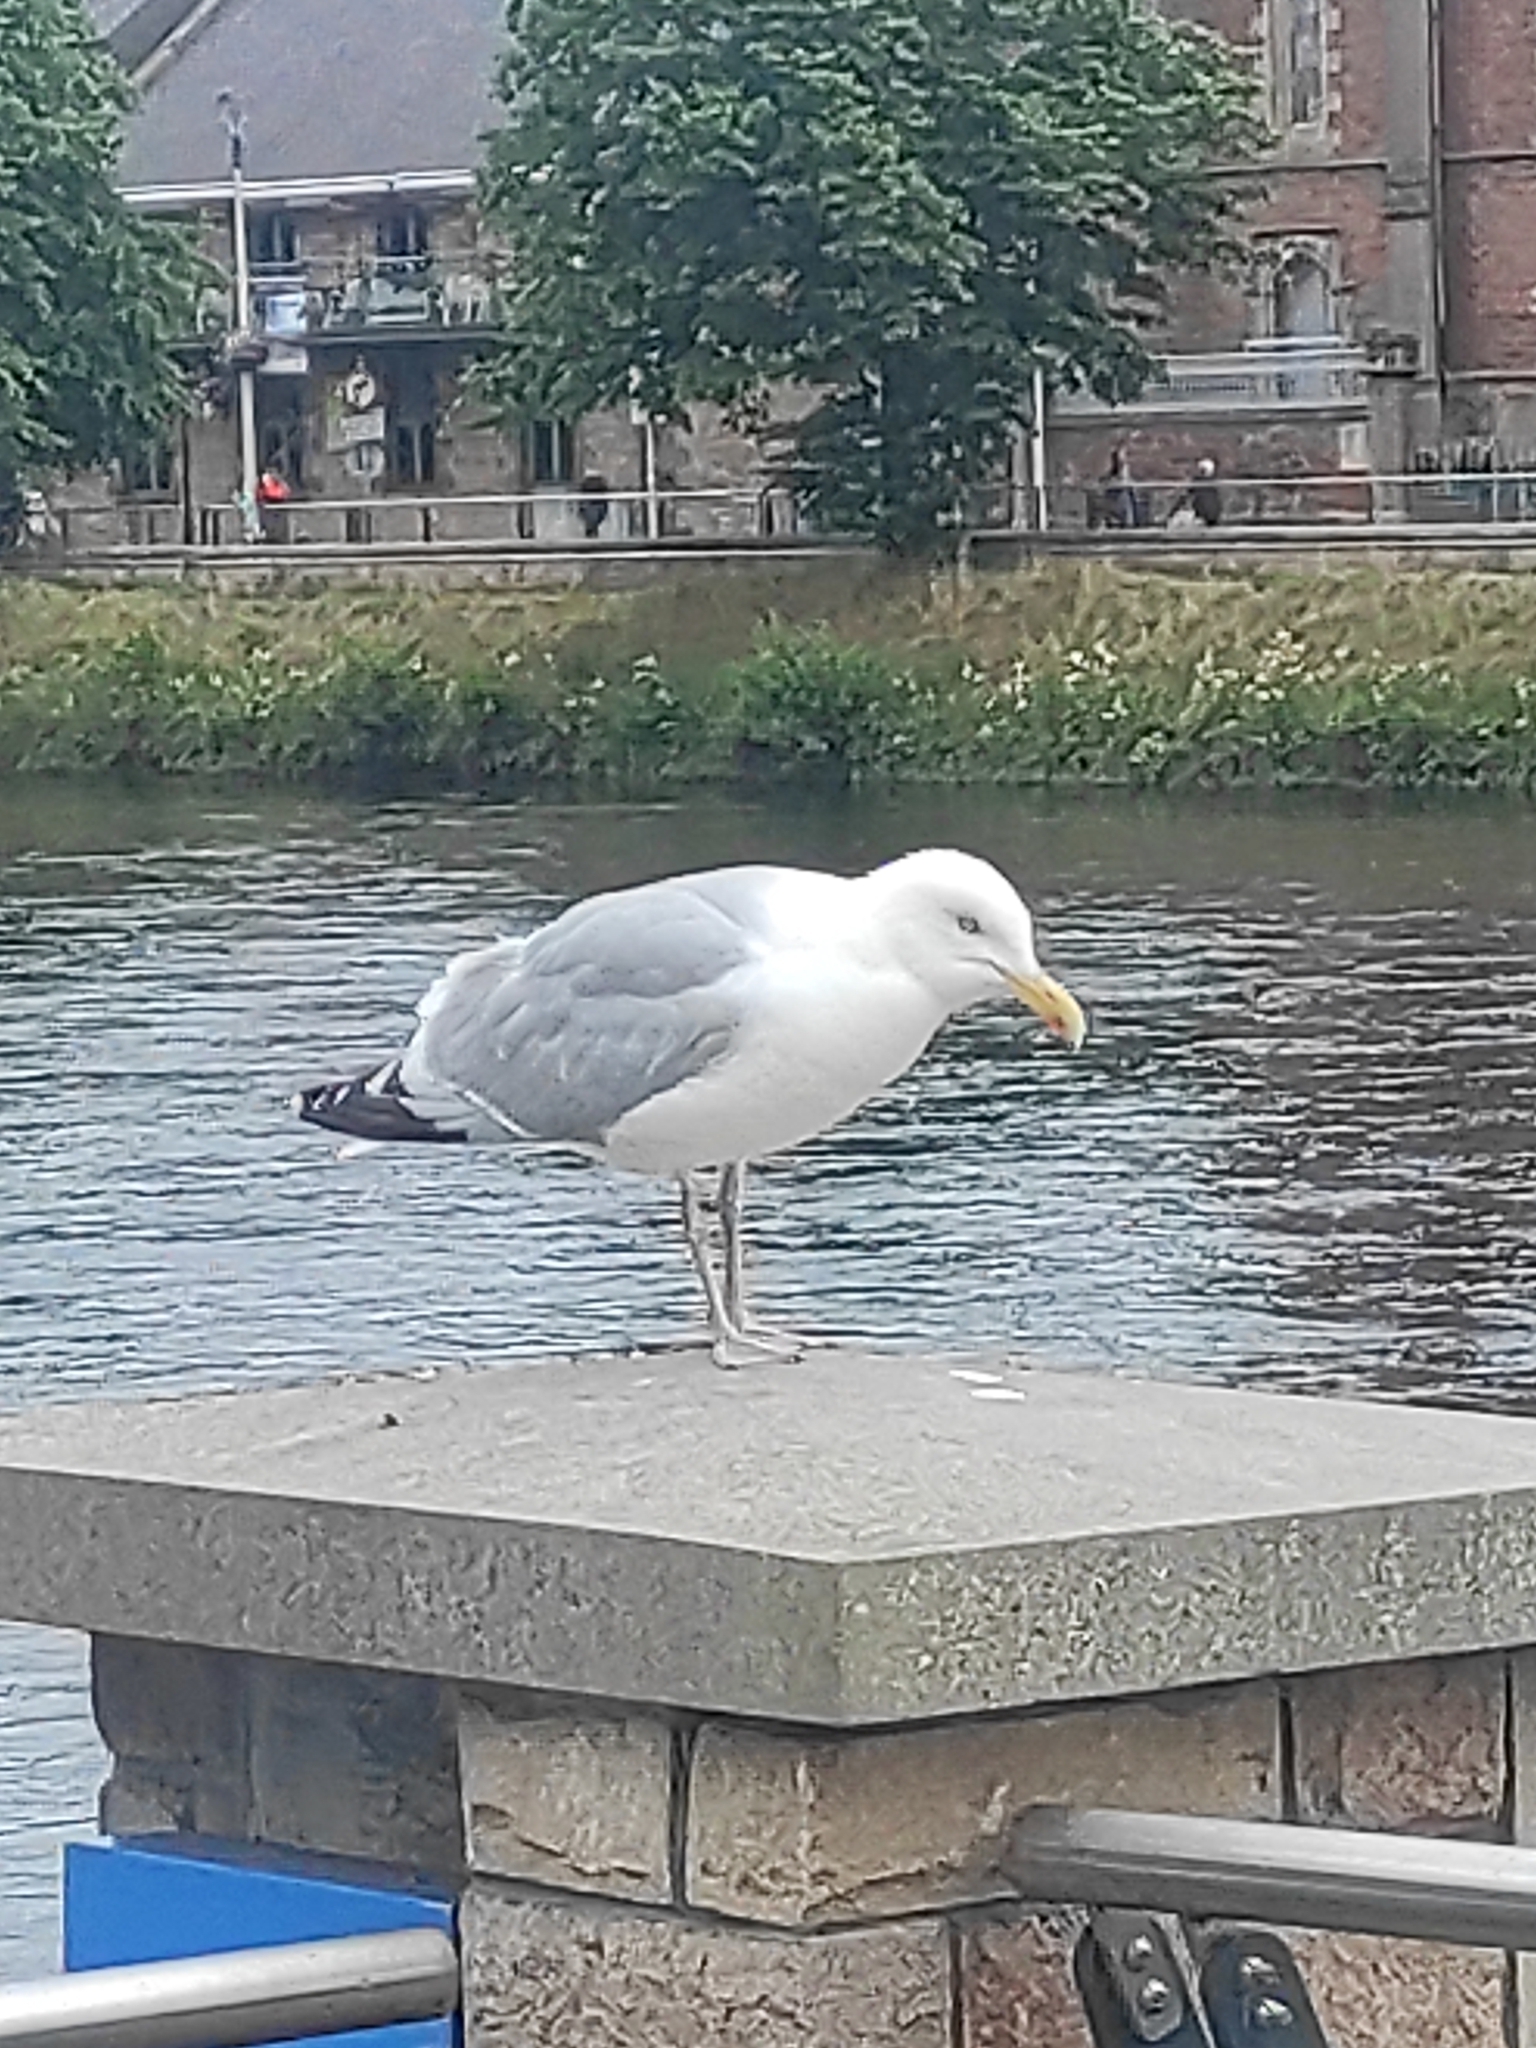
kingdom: Animalia
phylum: Chordata
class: Aves
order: Charadriiformes
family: Laridae
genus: Larus
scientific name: Larus argentatus
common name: Herring gull
